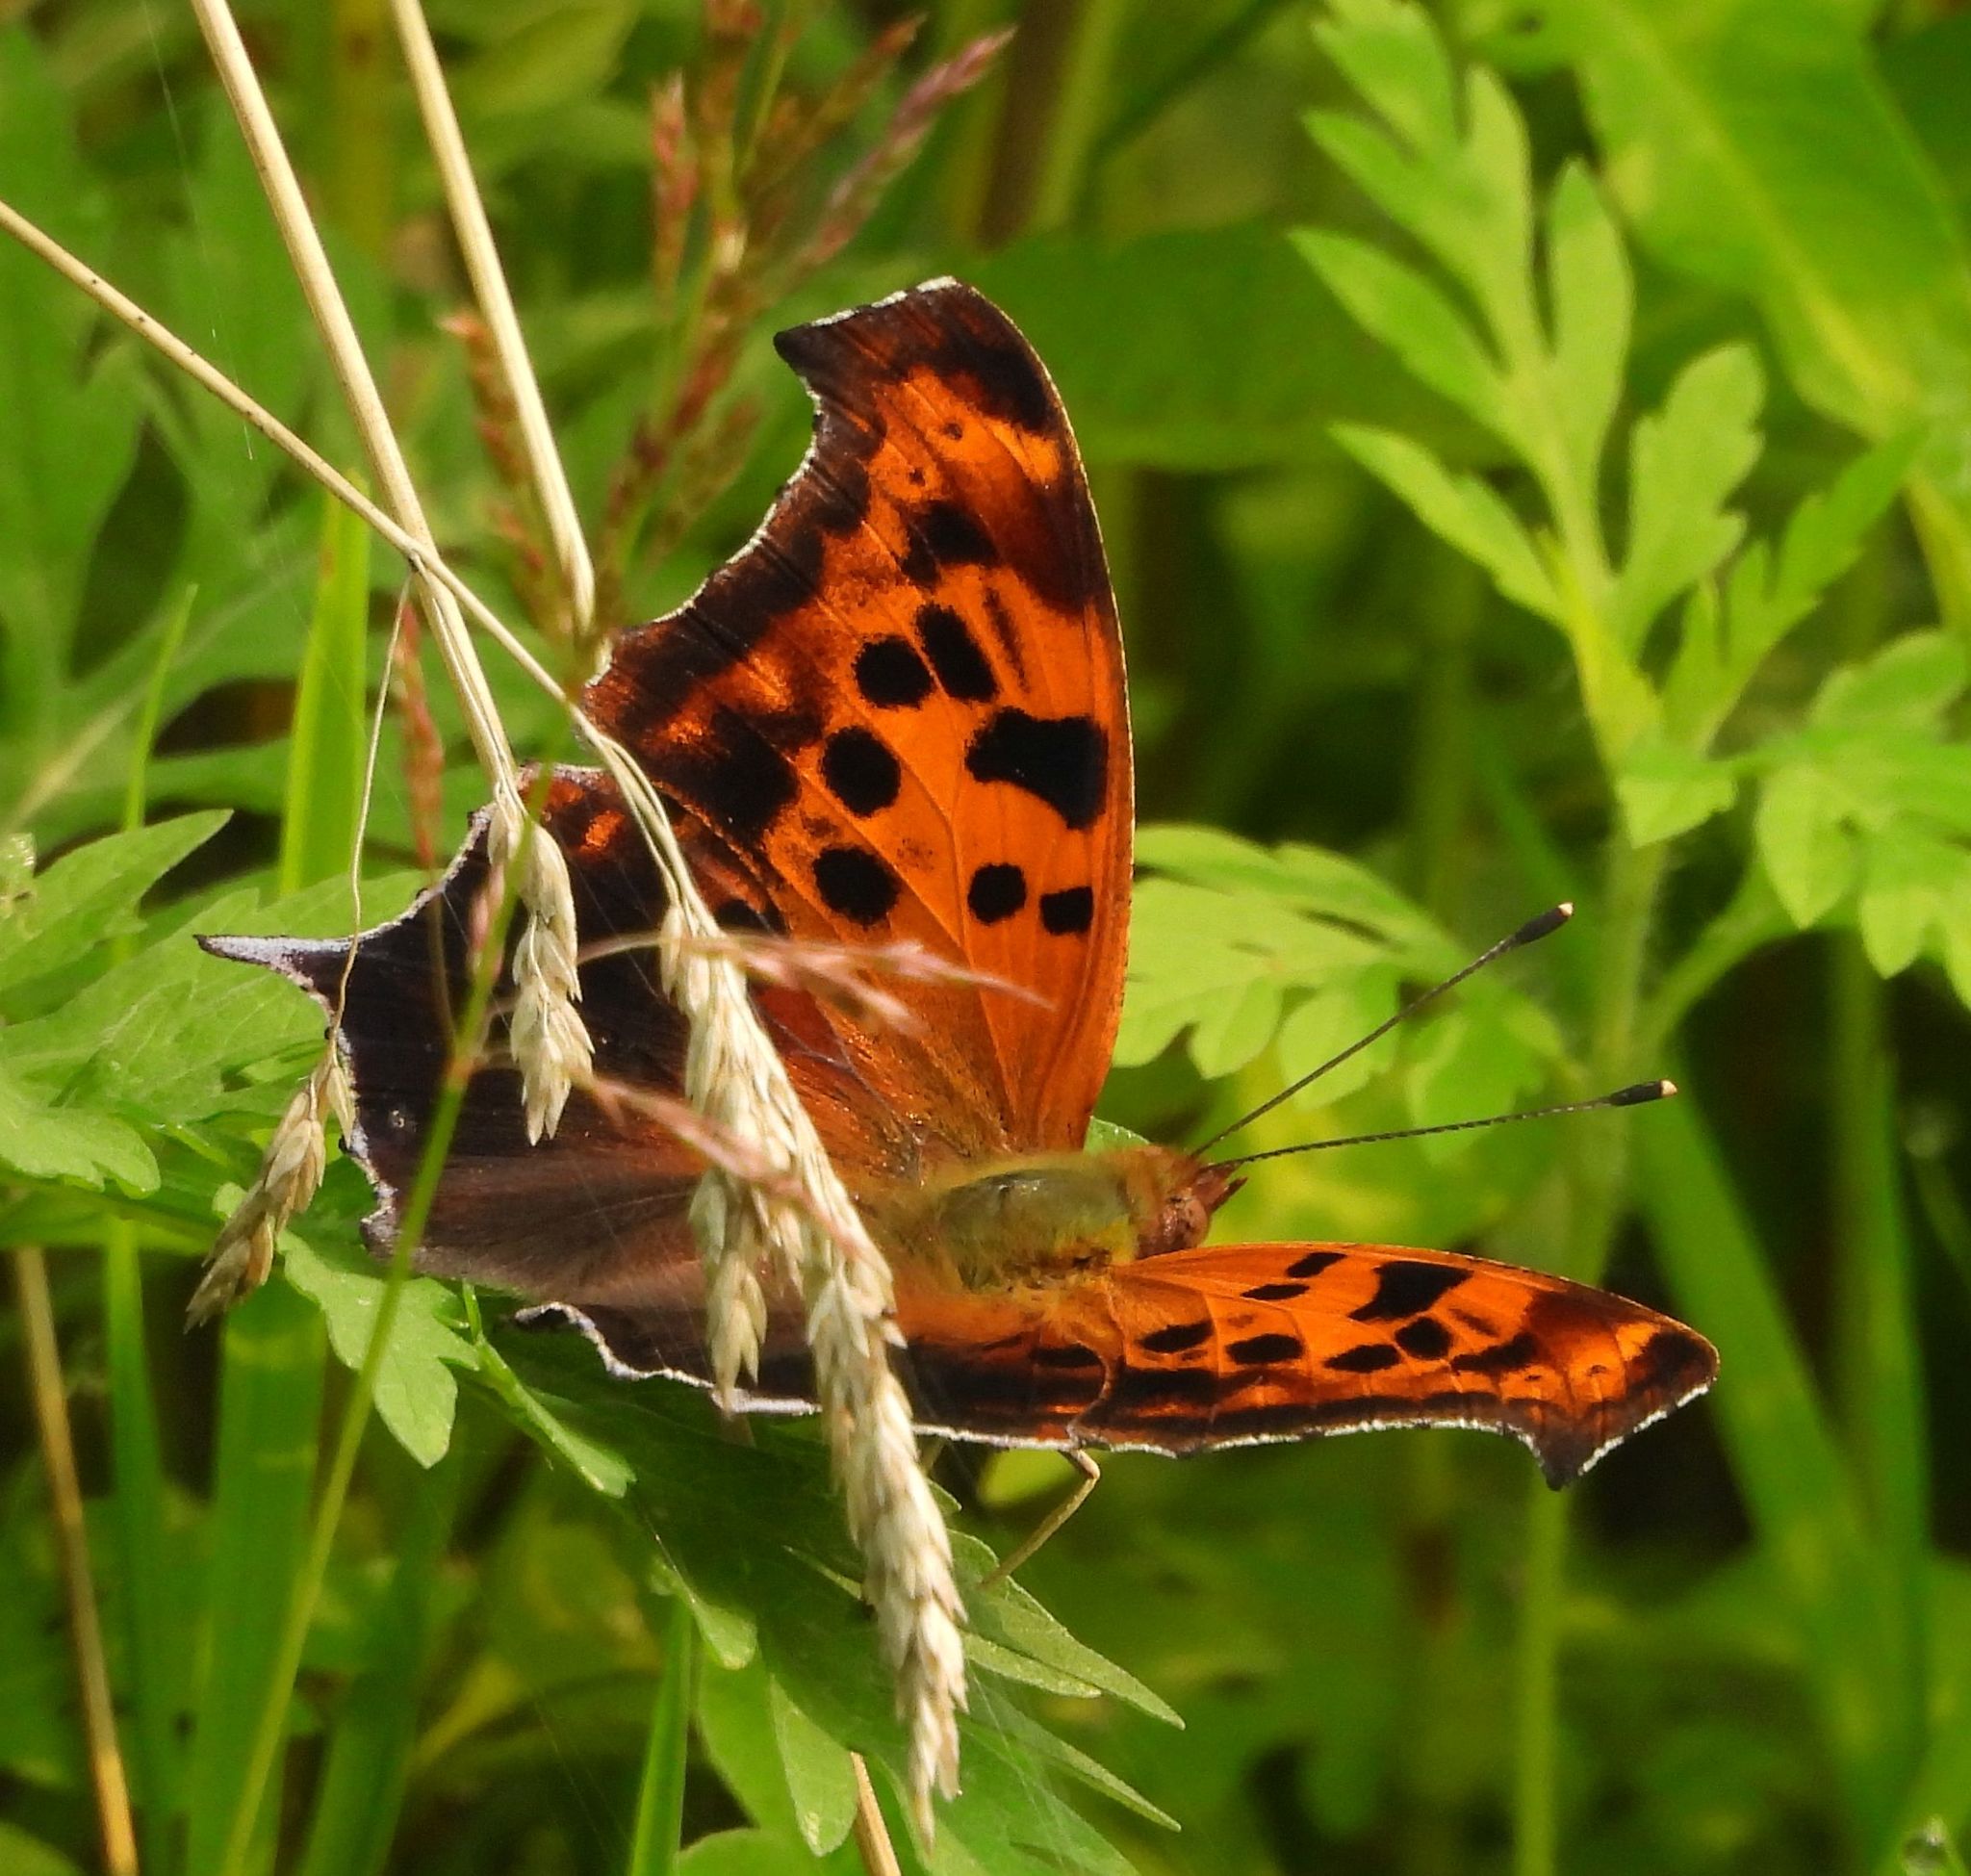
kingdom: Animalia
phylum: Arthropoda
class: Insecta
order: Lepidoptera
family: Nymphalidae
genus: Polygonia
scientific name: Polygonia interrogationis
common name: Question mark
